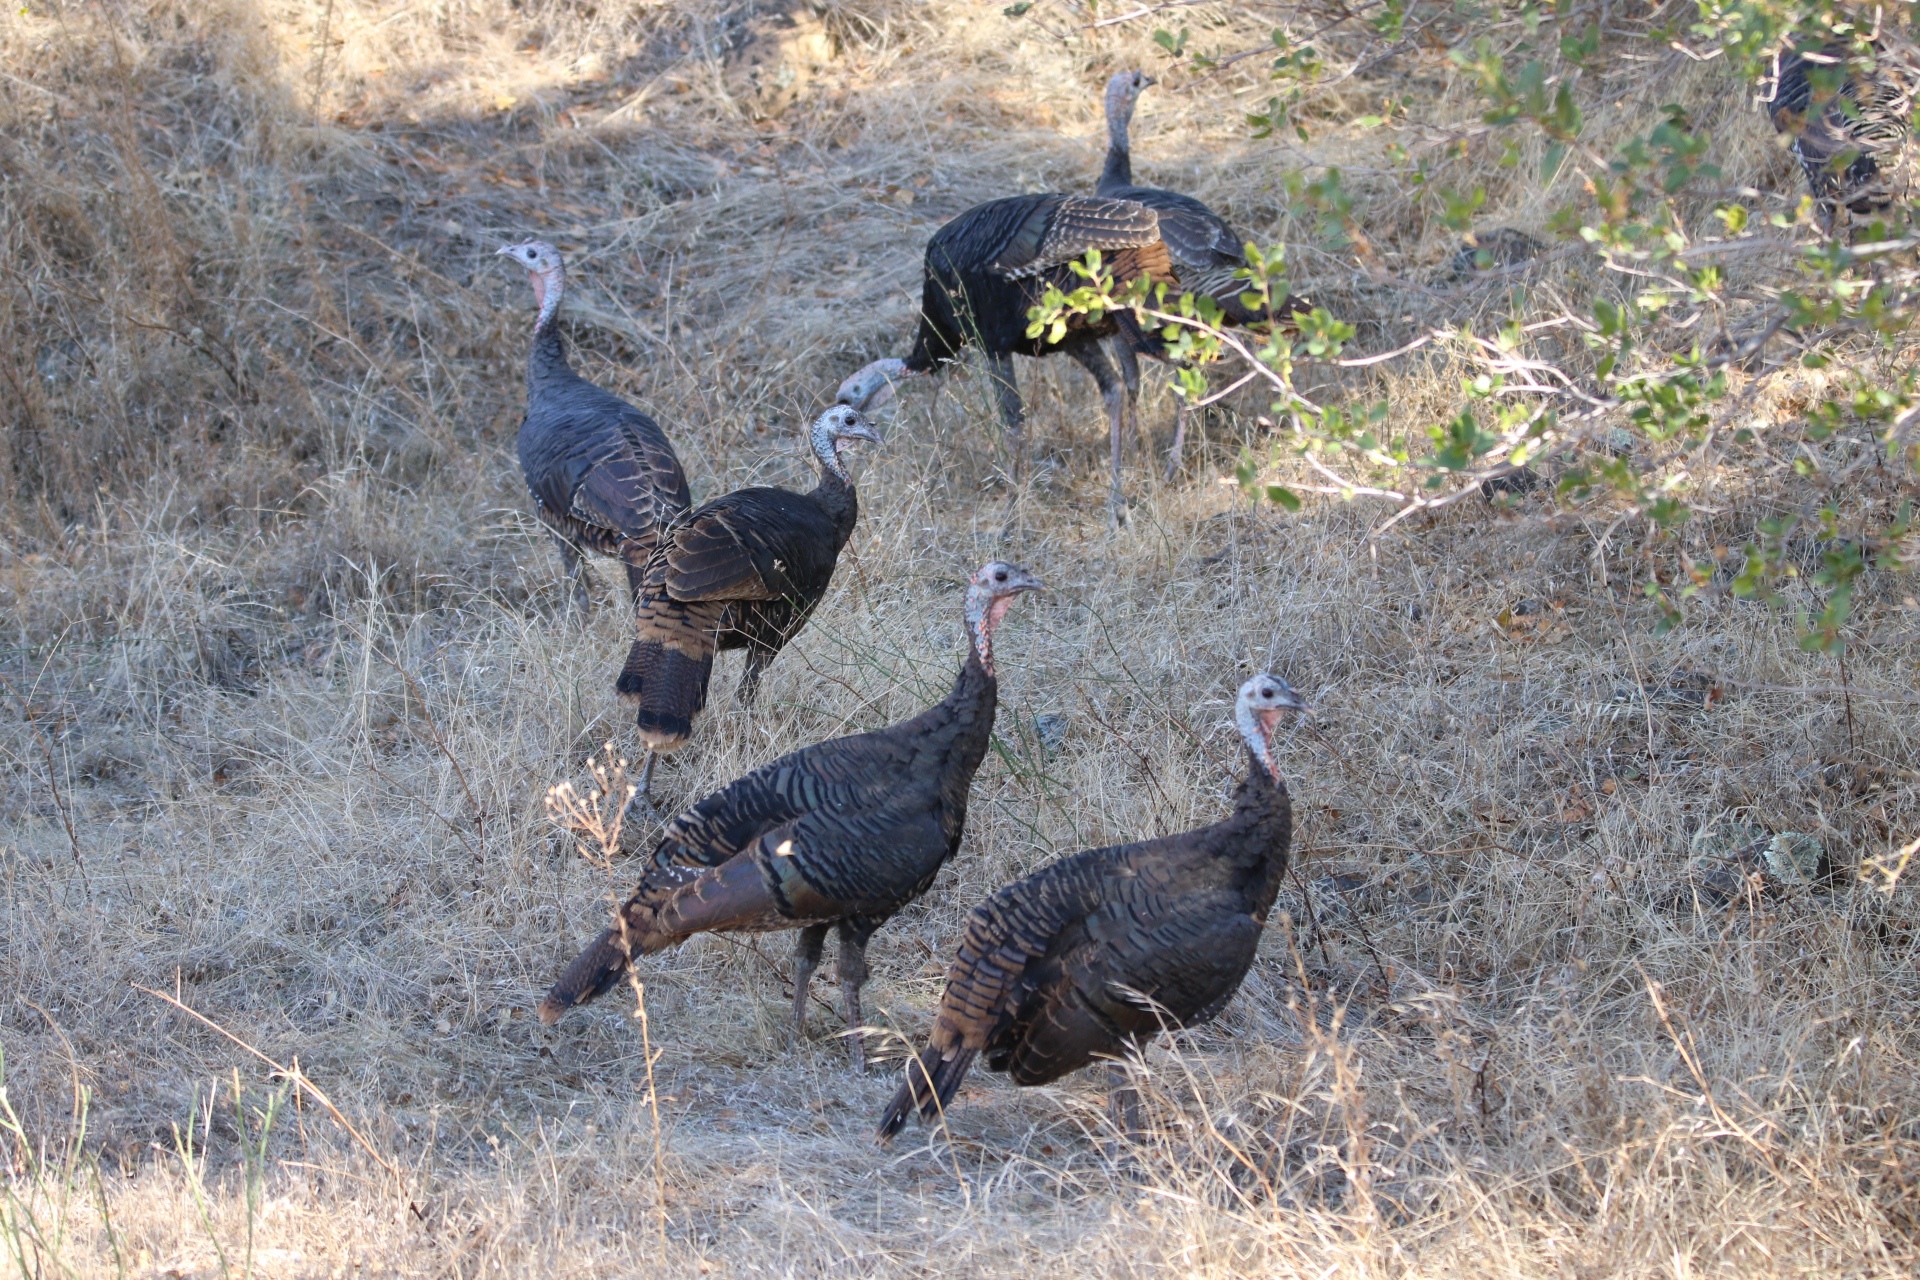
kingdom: Animalia
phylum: Chordata
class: Aves
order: Galliformes
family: Phasianidae
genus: Meleagris
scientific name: Meleagris gallopavo
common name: Wild turkey
